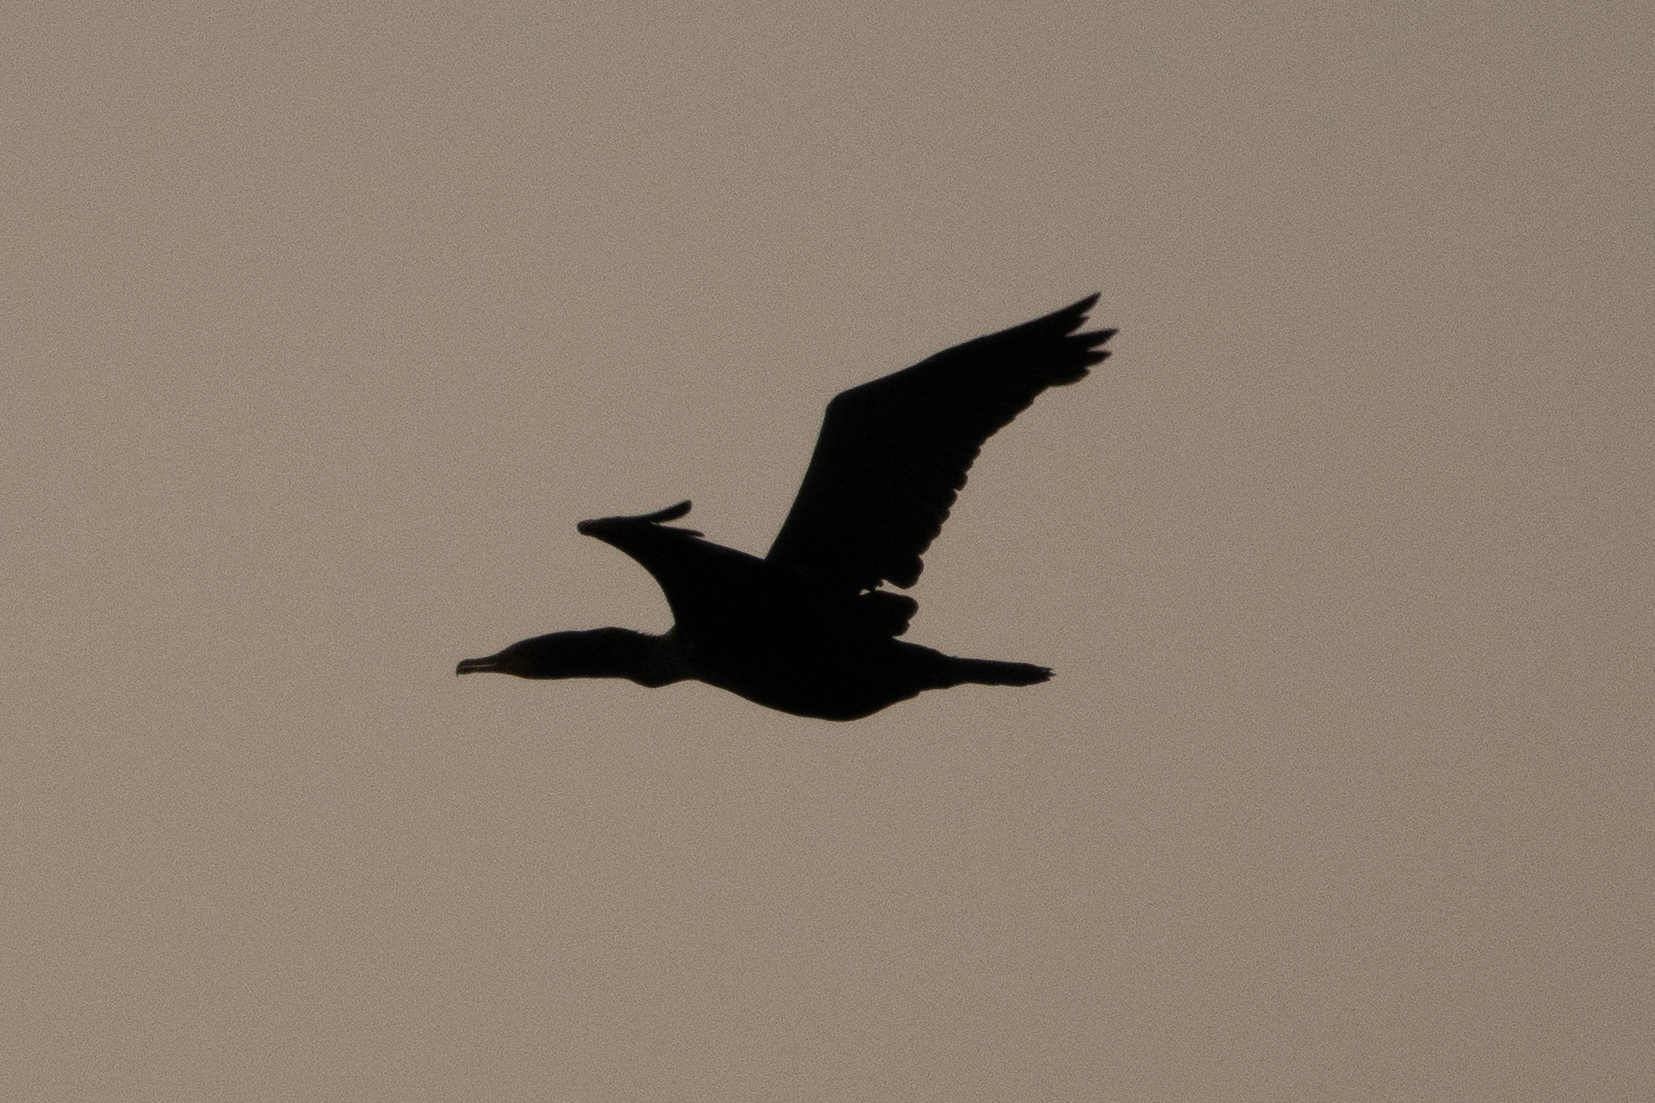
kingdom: Animalia
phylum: Chordata
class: Aves
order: Suliformes
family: Phalacrocoracidae
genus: Phalacrocorax
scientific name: Phalacrocorax auritus
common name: Double-crested cormorant
